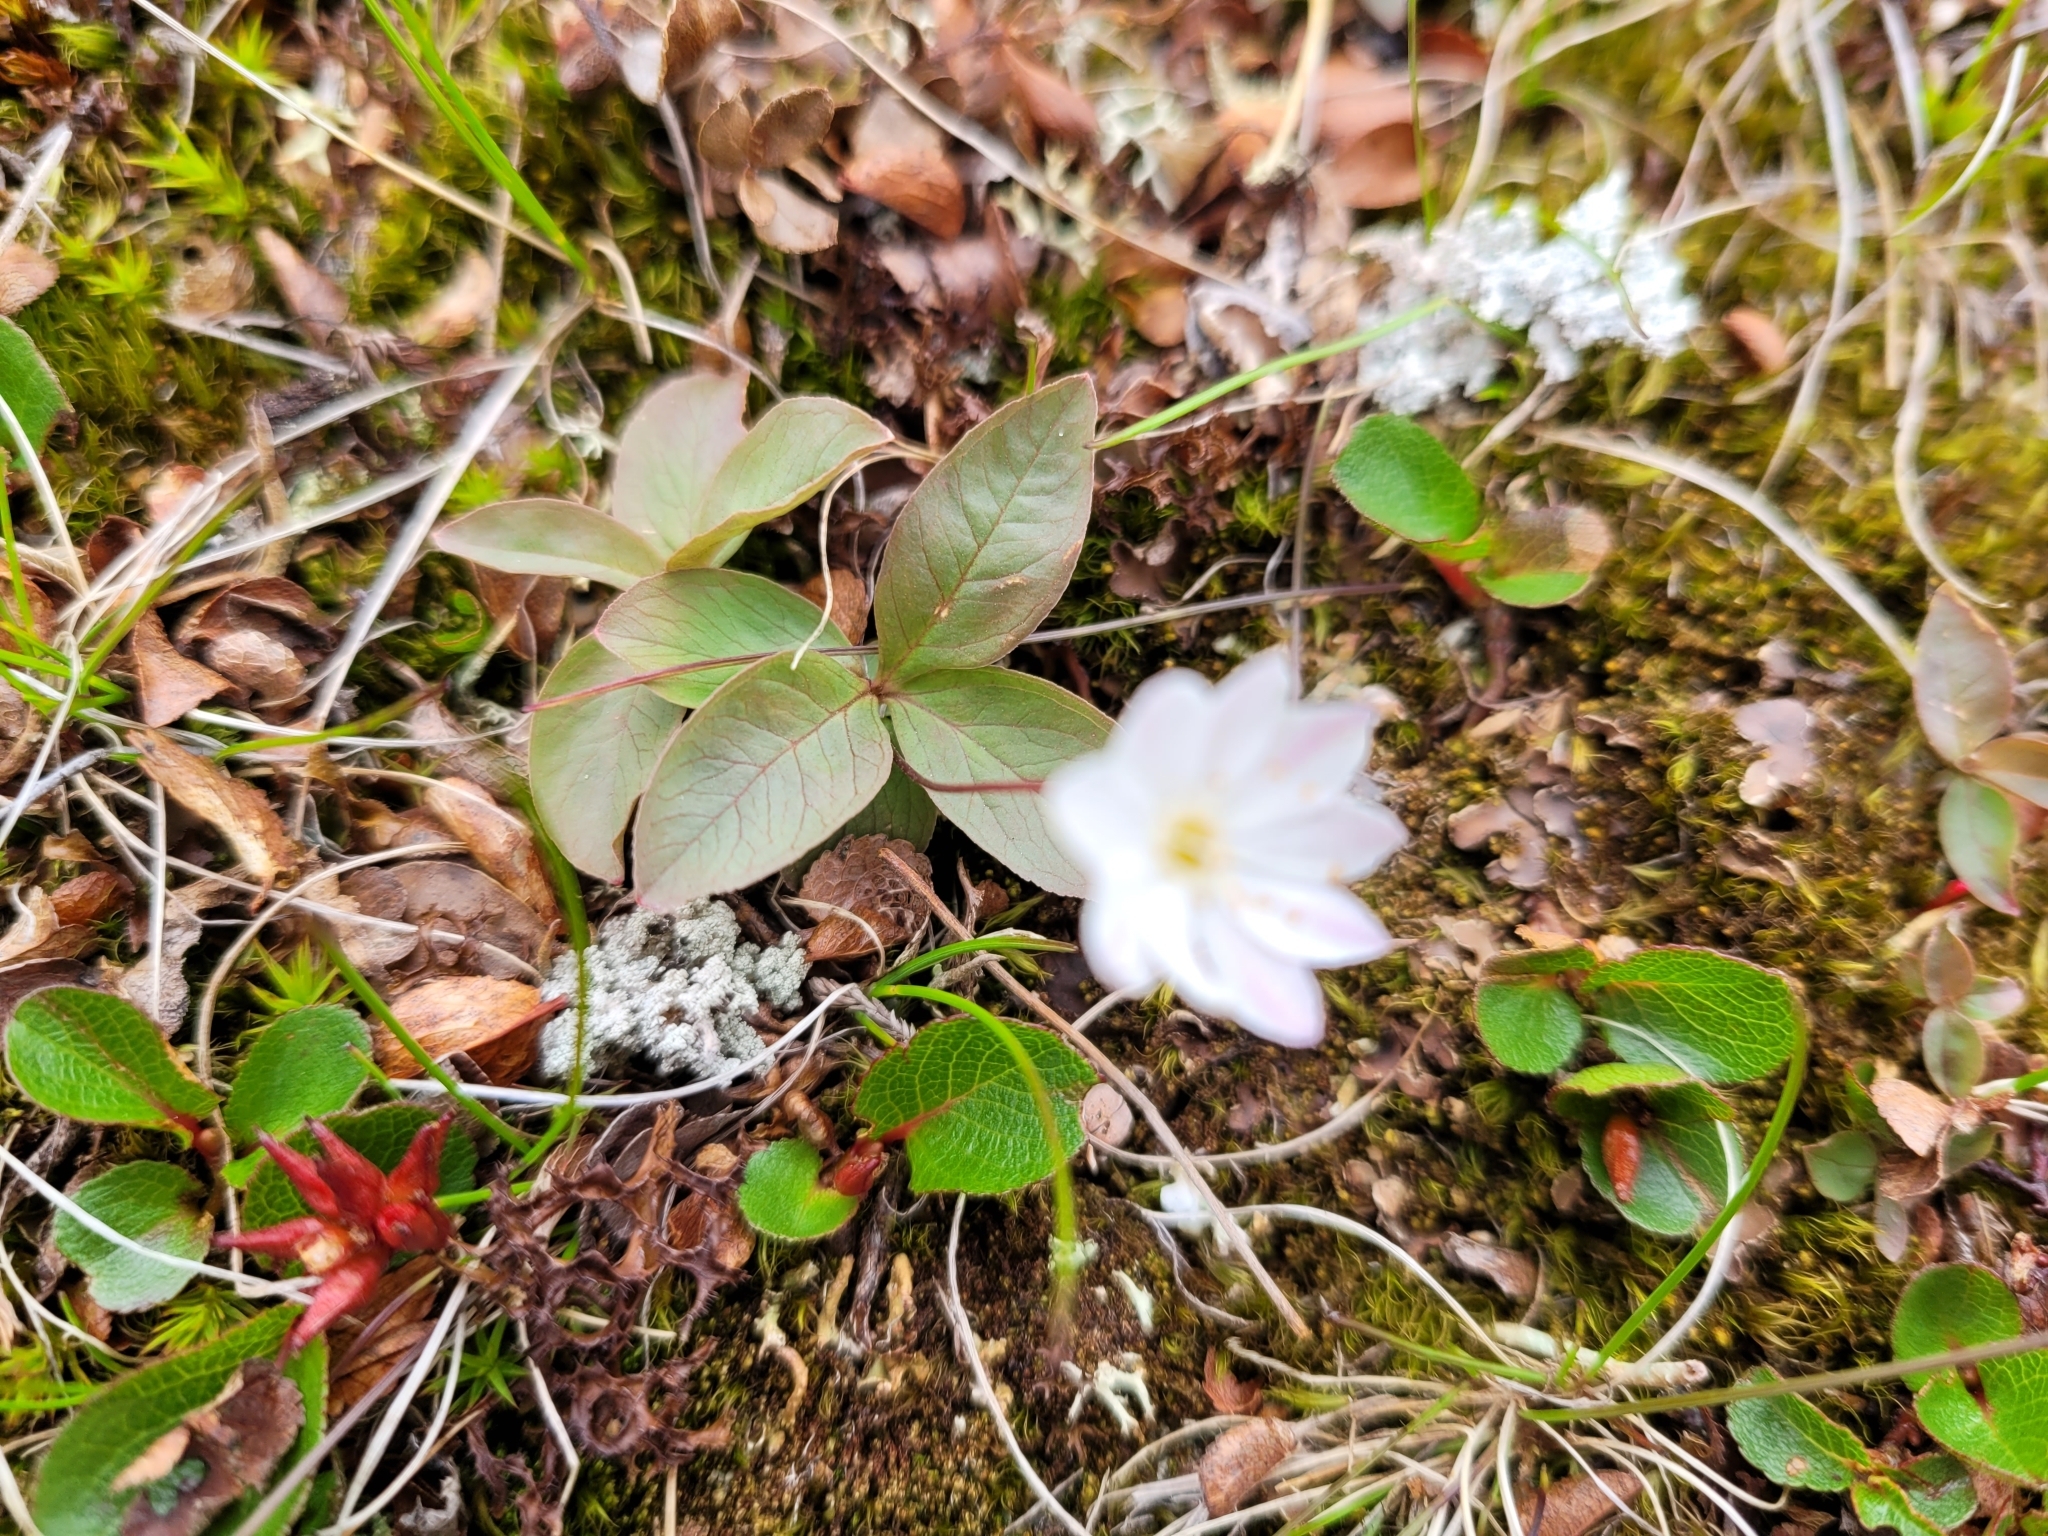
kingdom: Plantae
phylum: Tracheophyta
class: Magnoliopsida
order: Ericales
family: Primulaceae
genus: Lysimachia
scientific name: Lysimachia europaea
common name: Arctic starflower
